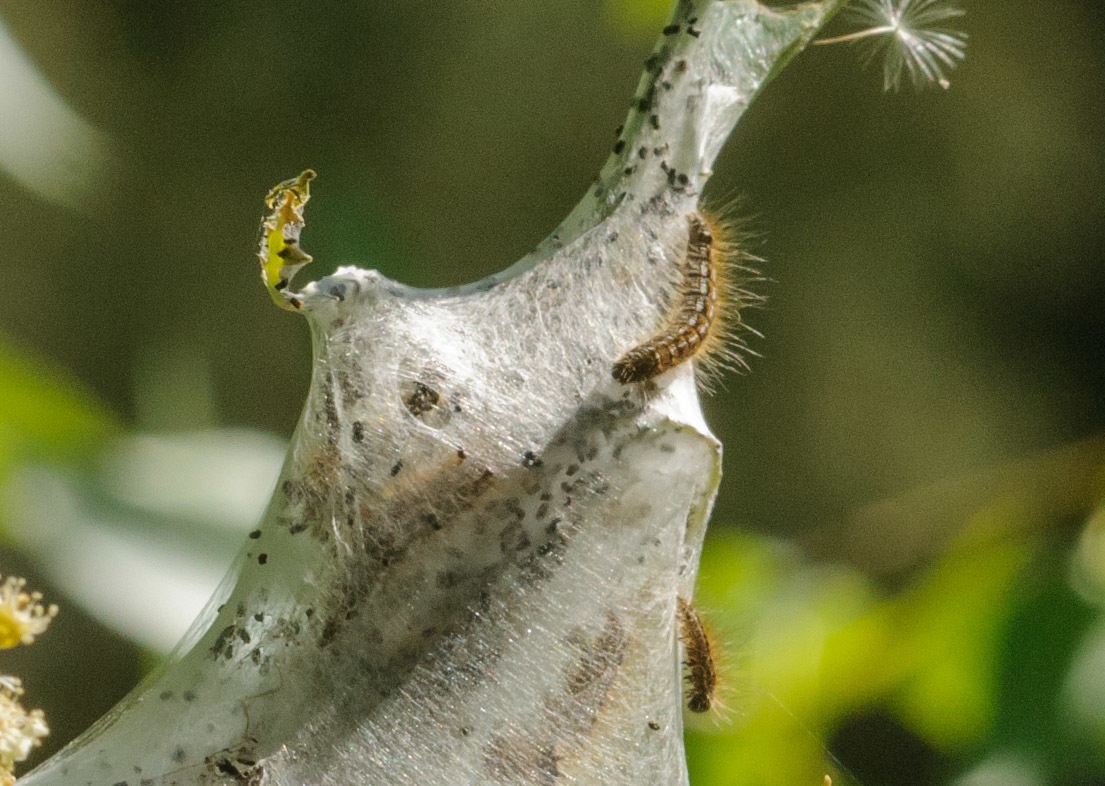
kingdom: Animalia
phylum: Arthropoda
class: Insecta
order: Lepidoptera
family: Lasiocampidae
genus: Malacosoma
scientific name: Malacosoma californica
